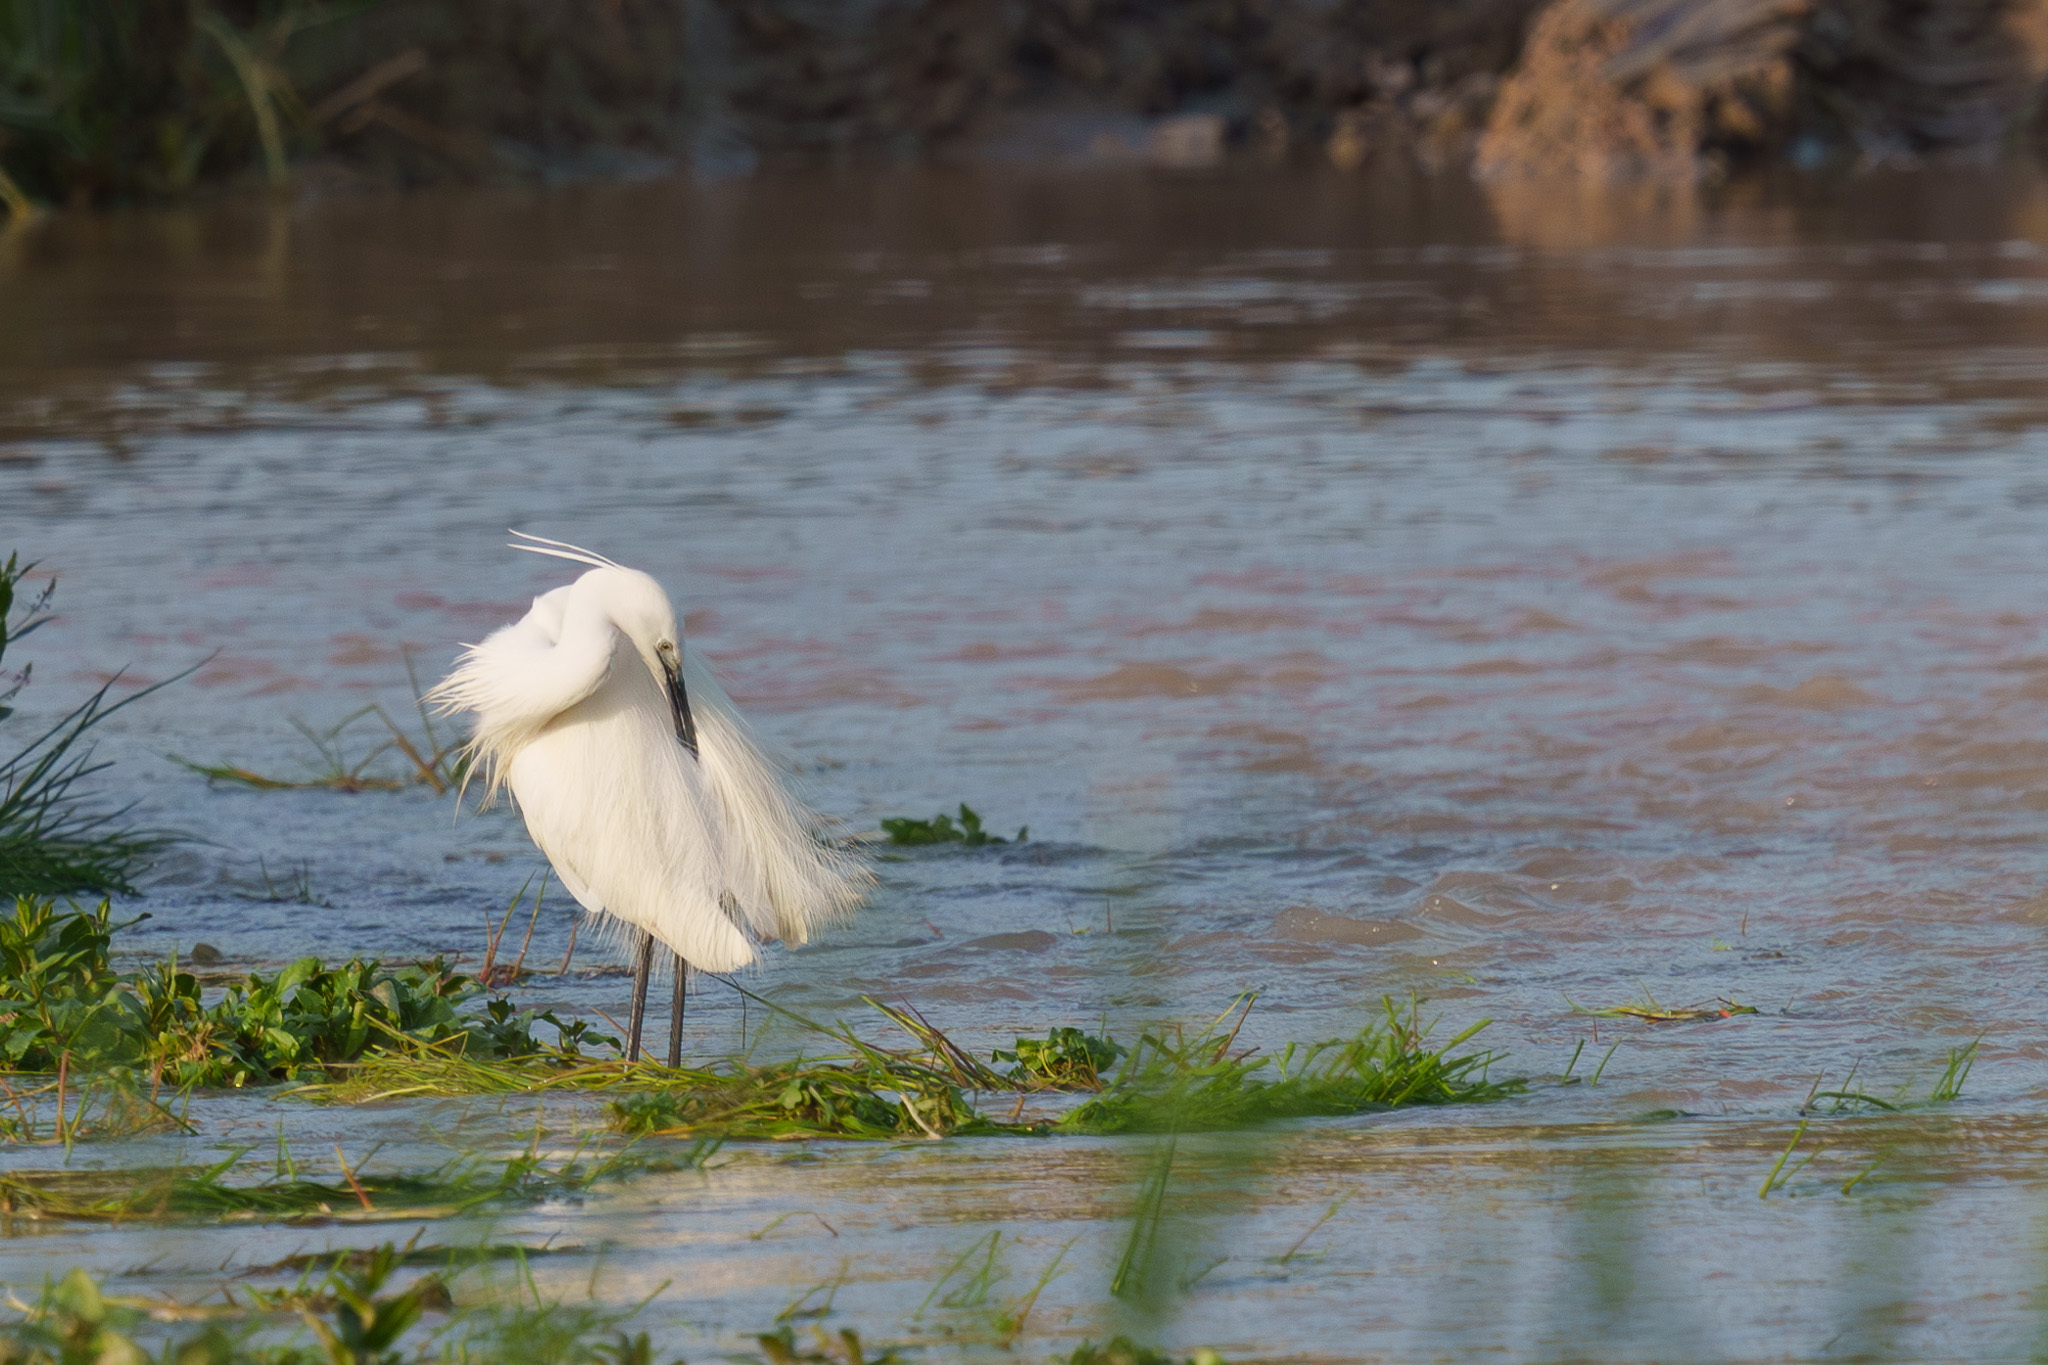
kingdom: Animalia
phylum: Chordata
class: Aves
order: Pelecaniformes
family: Ardeidae
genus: Egretta
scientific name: Egretta garzetta
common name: Little egret
